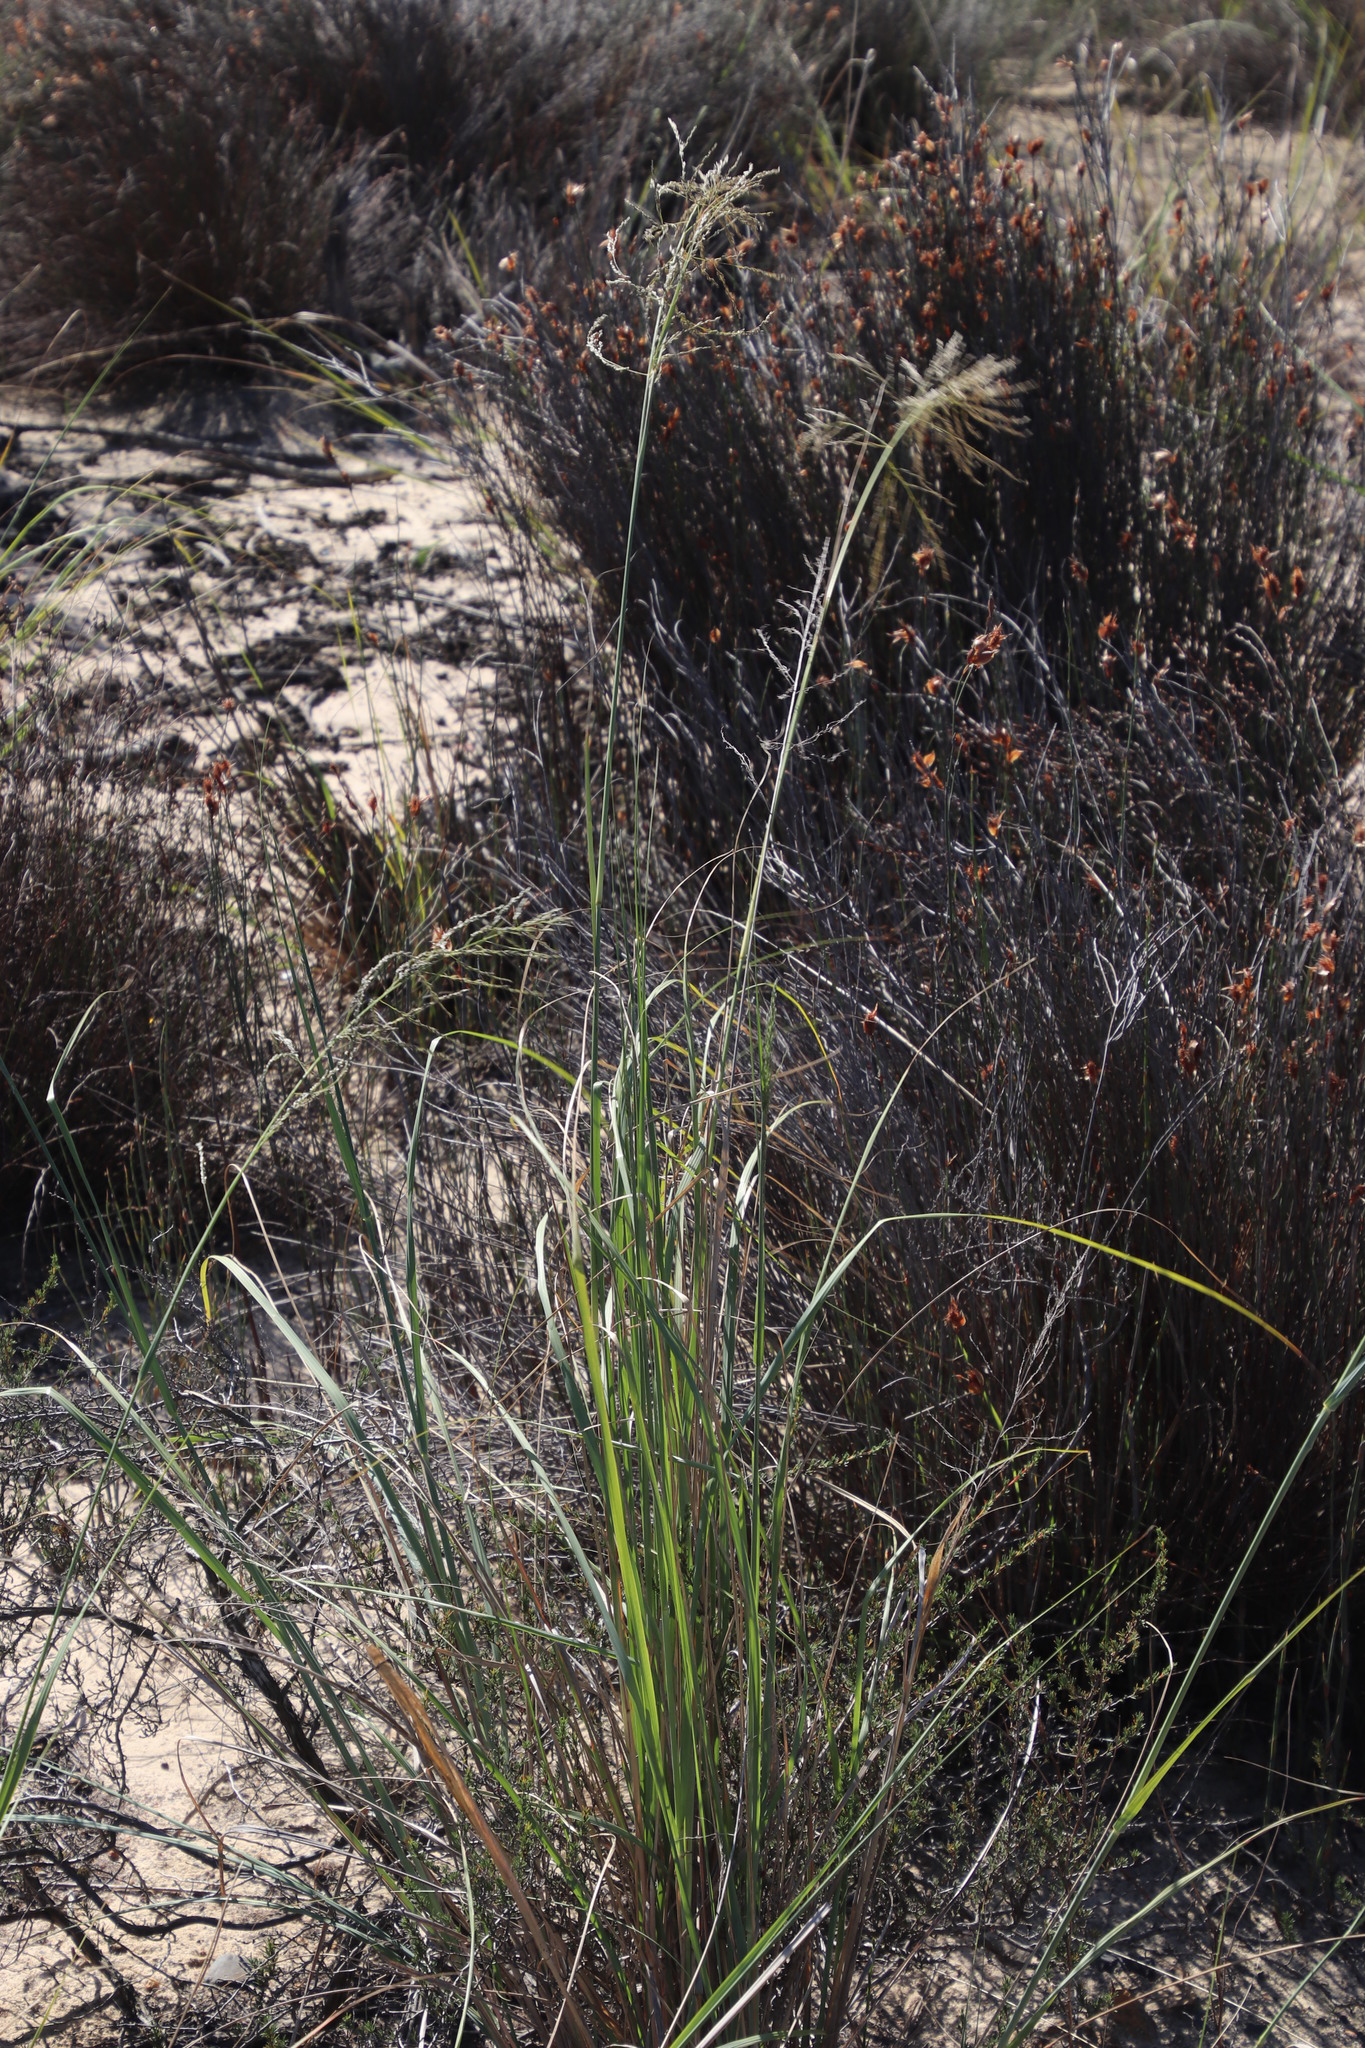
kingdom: Plantae
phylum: Tracheophyta
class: Liliopsida
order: Poales
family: Poaceae
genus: Eragrostis
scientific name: Eragrostis curvula
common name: African love-grass
